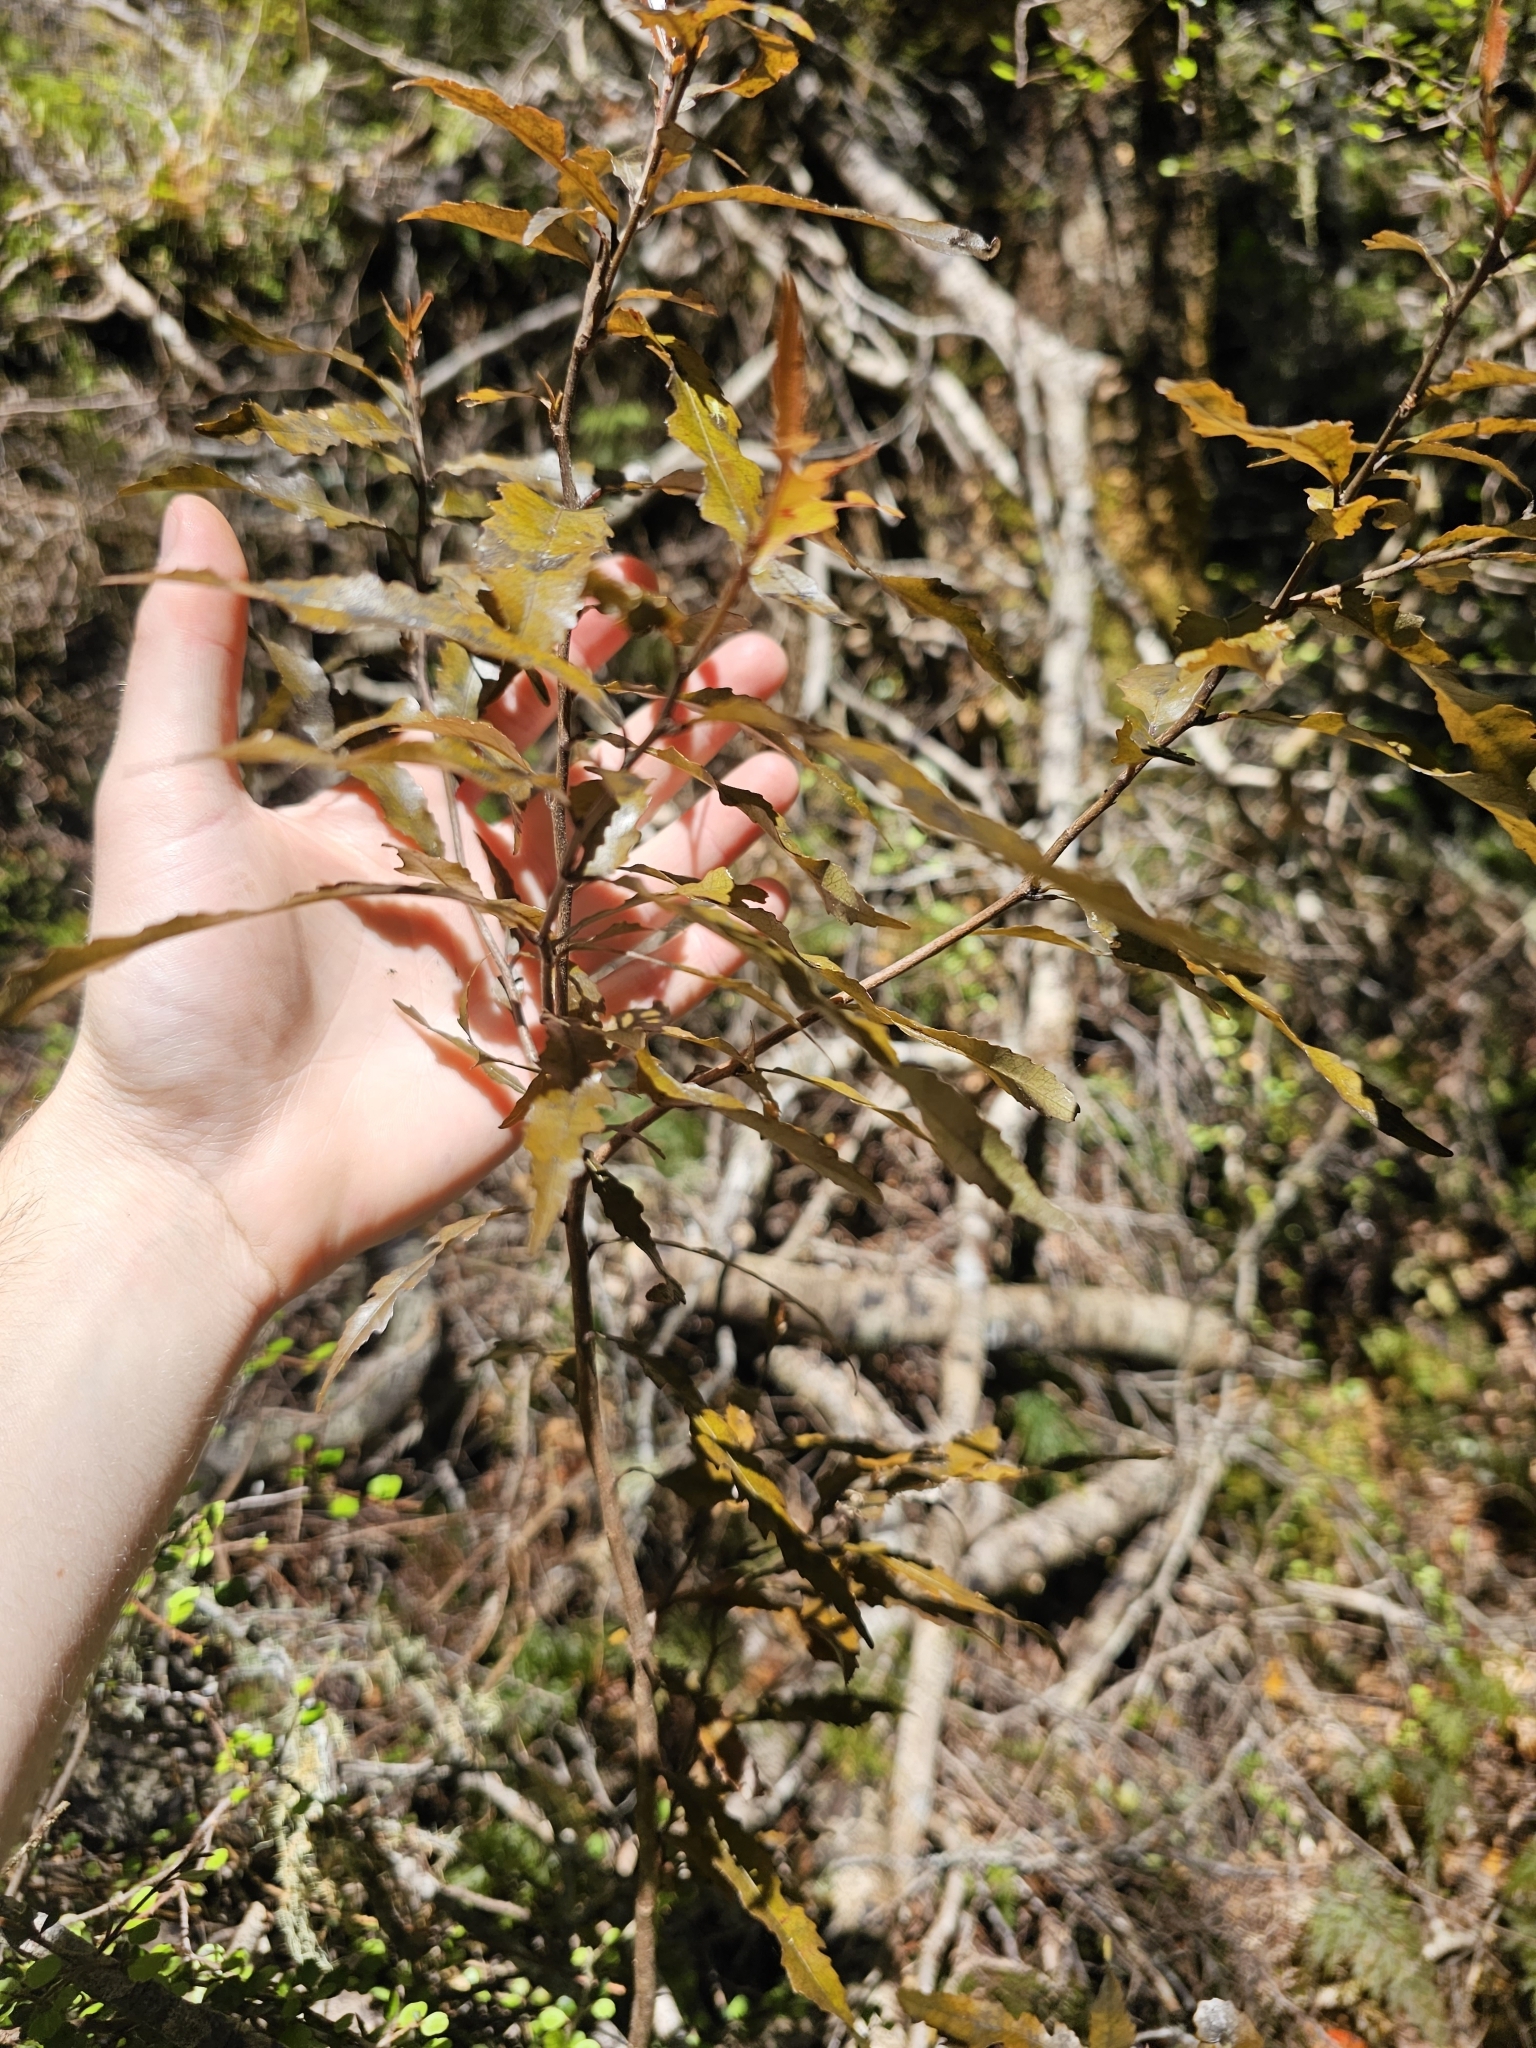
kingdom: Plantae
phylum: Tracheophyta
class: Magnoliopsida
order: Oxalidales
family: Elaeocarpaceae
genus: Elaeocarpus
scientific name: Elaeocarpus
